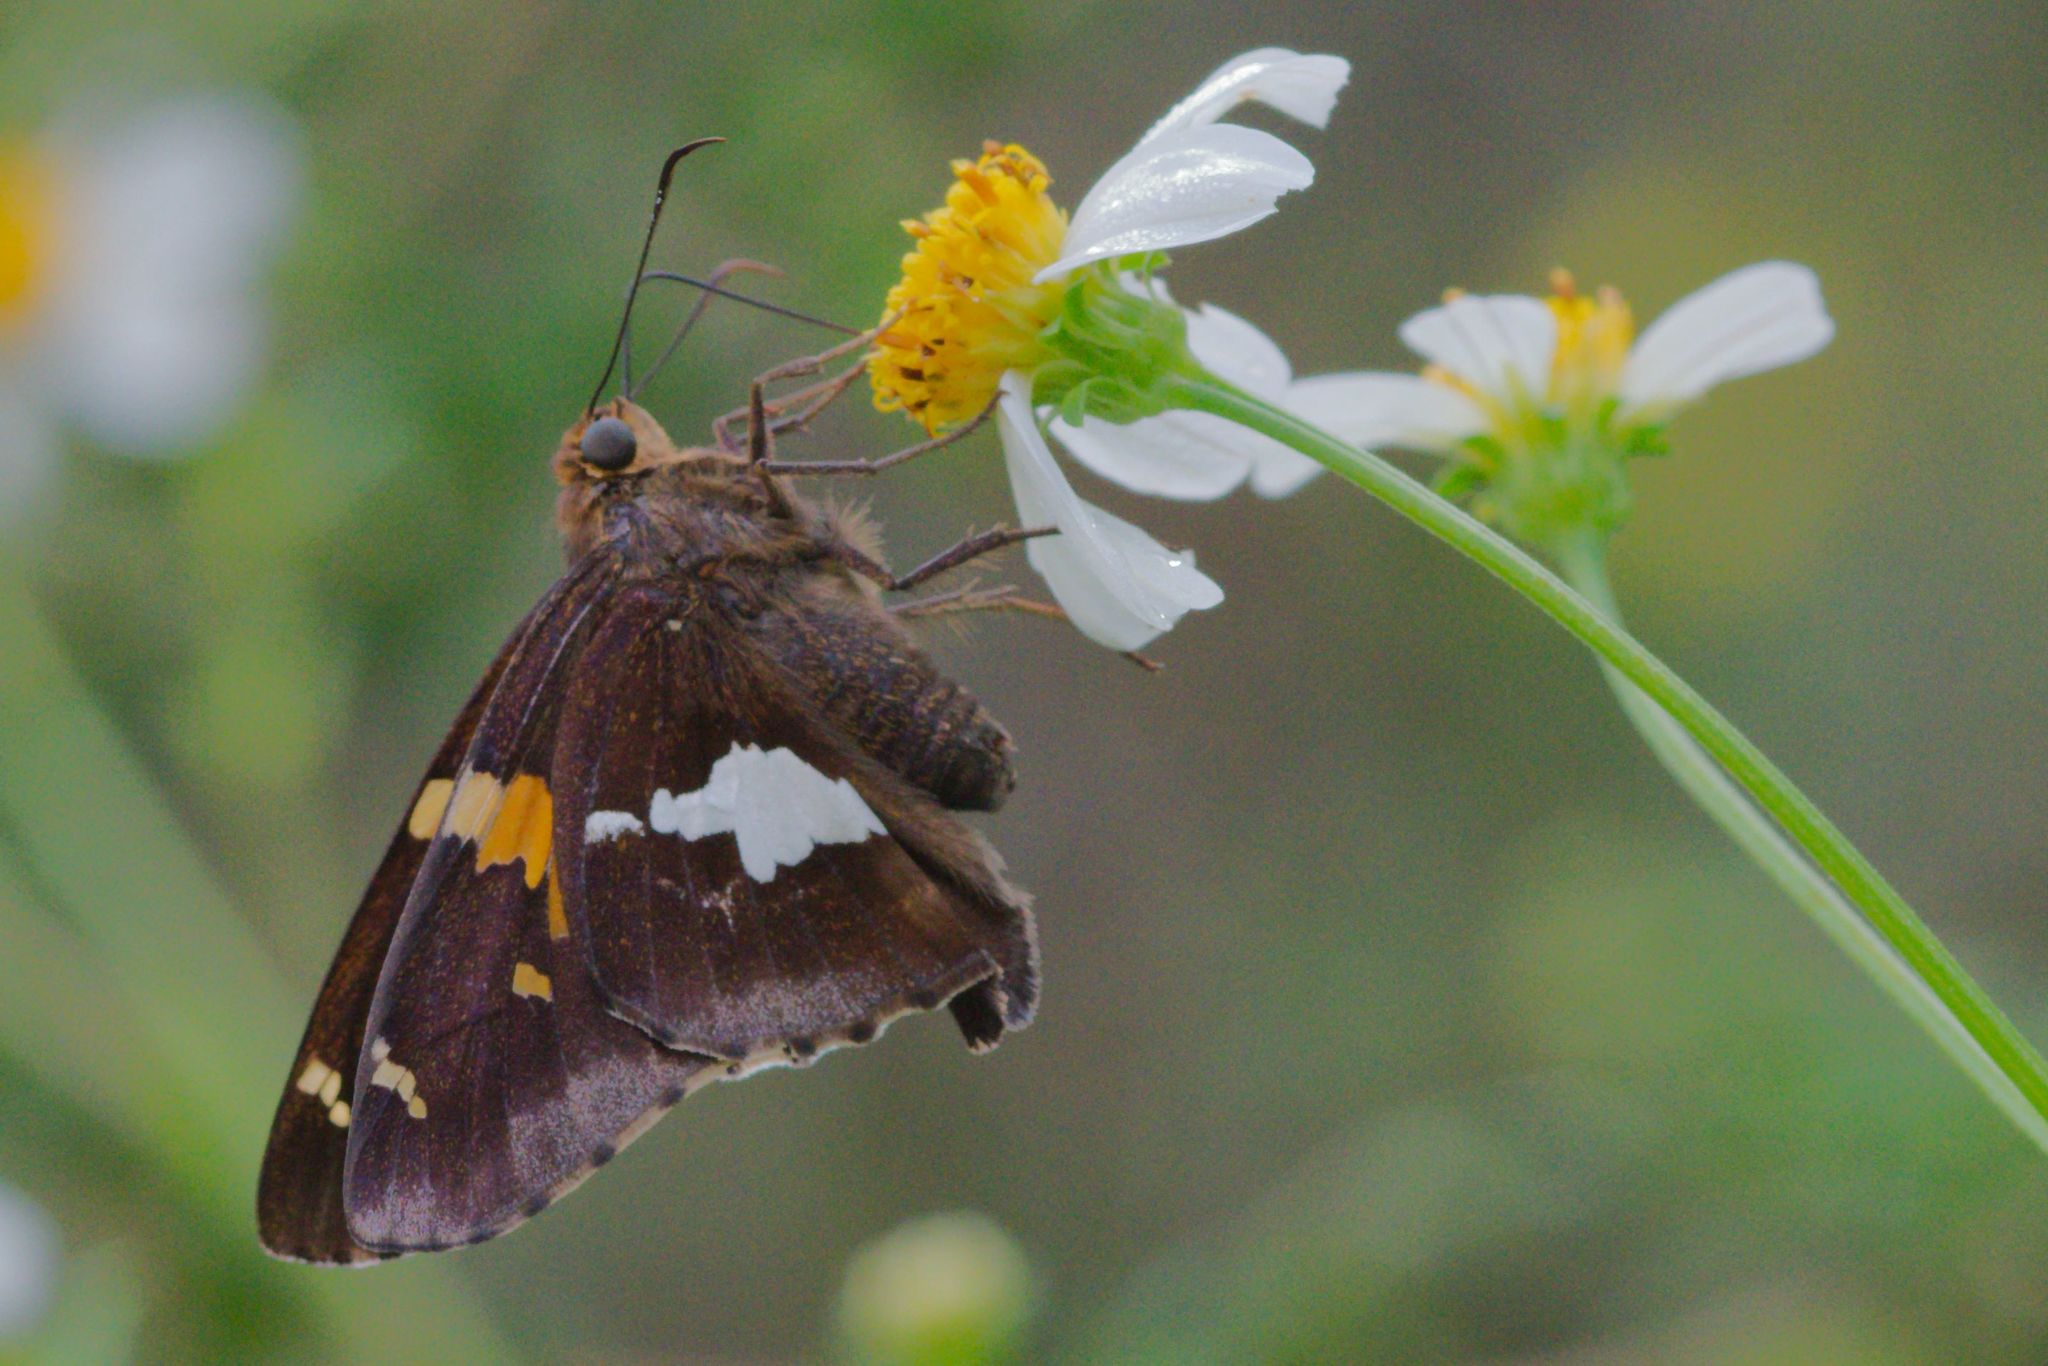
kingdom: Animalia
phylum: Arthropoda
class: Insecta
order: Lepidoptera
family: Hesperiidae
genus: Epargyreus
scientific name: Epargyreus clarus
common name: Silver-spotted skipper
